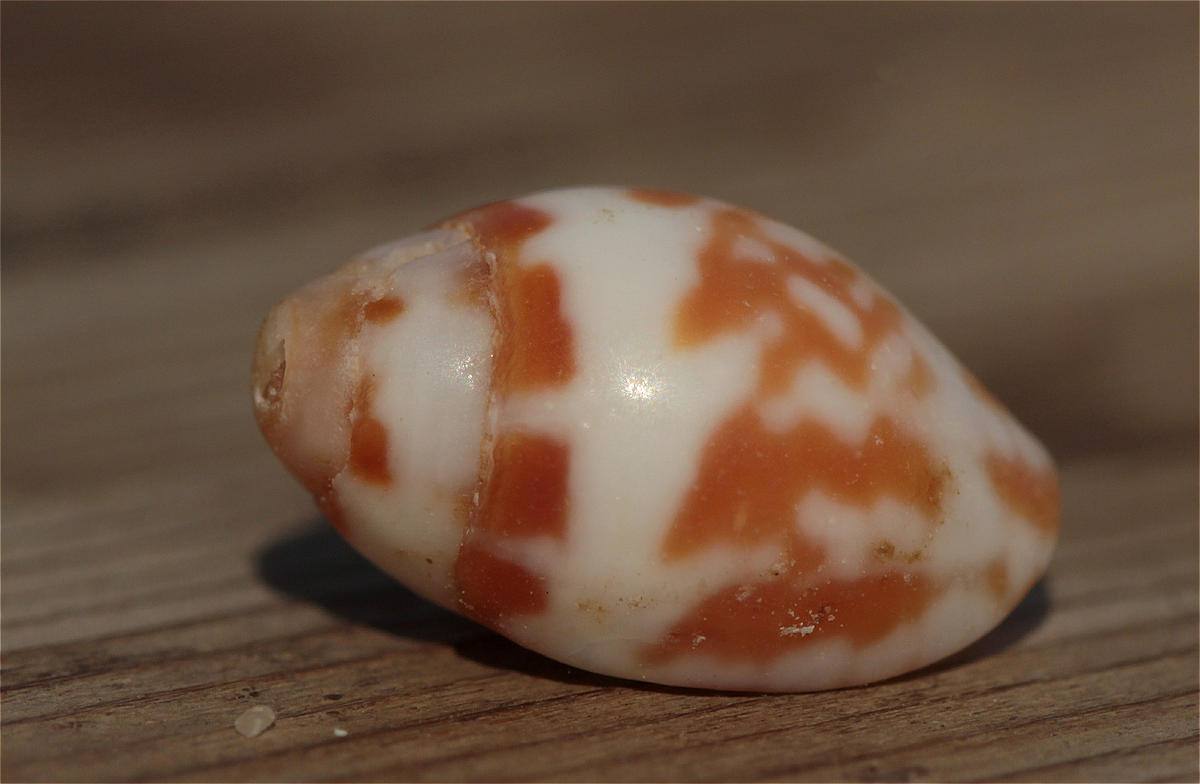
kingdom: Animalia
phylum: Mollusca
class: Gastropoda
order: Neogastropoda
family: Mitridae
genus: Strigatella
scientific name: Strigatella litterata
